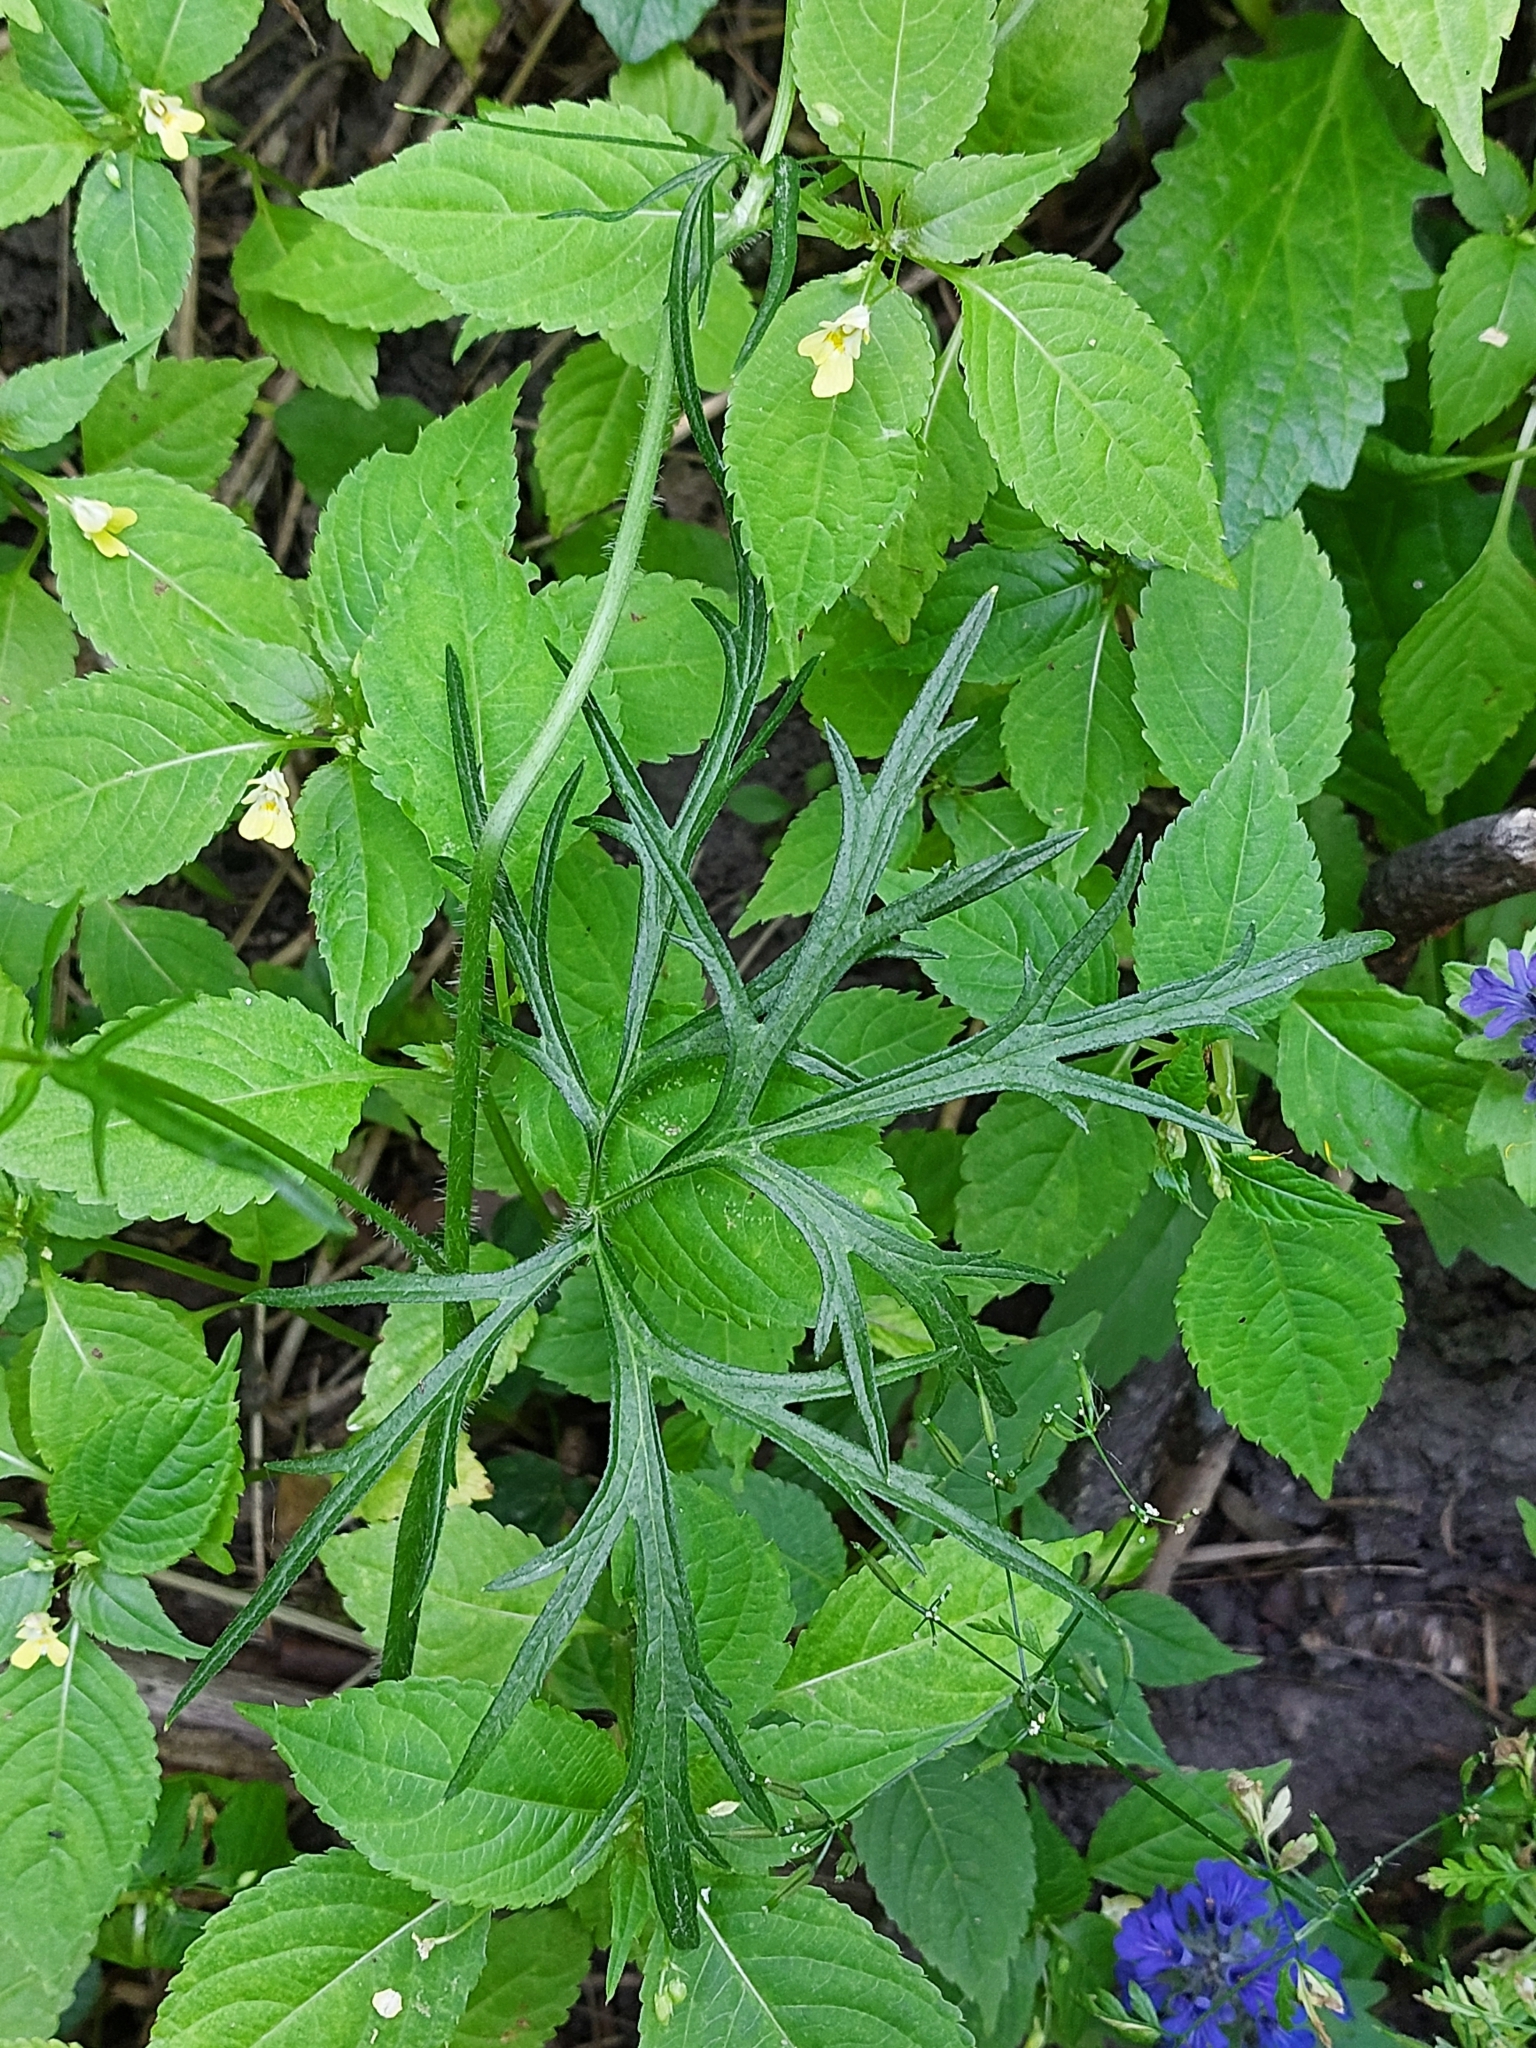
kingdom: Plantae
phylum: Tracheophyta
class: Magnoliopsida
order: Ranunculales
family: Ranunculaceae
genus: Ranunculus
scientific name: Ranunculus polyanthemos
